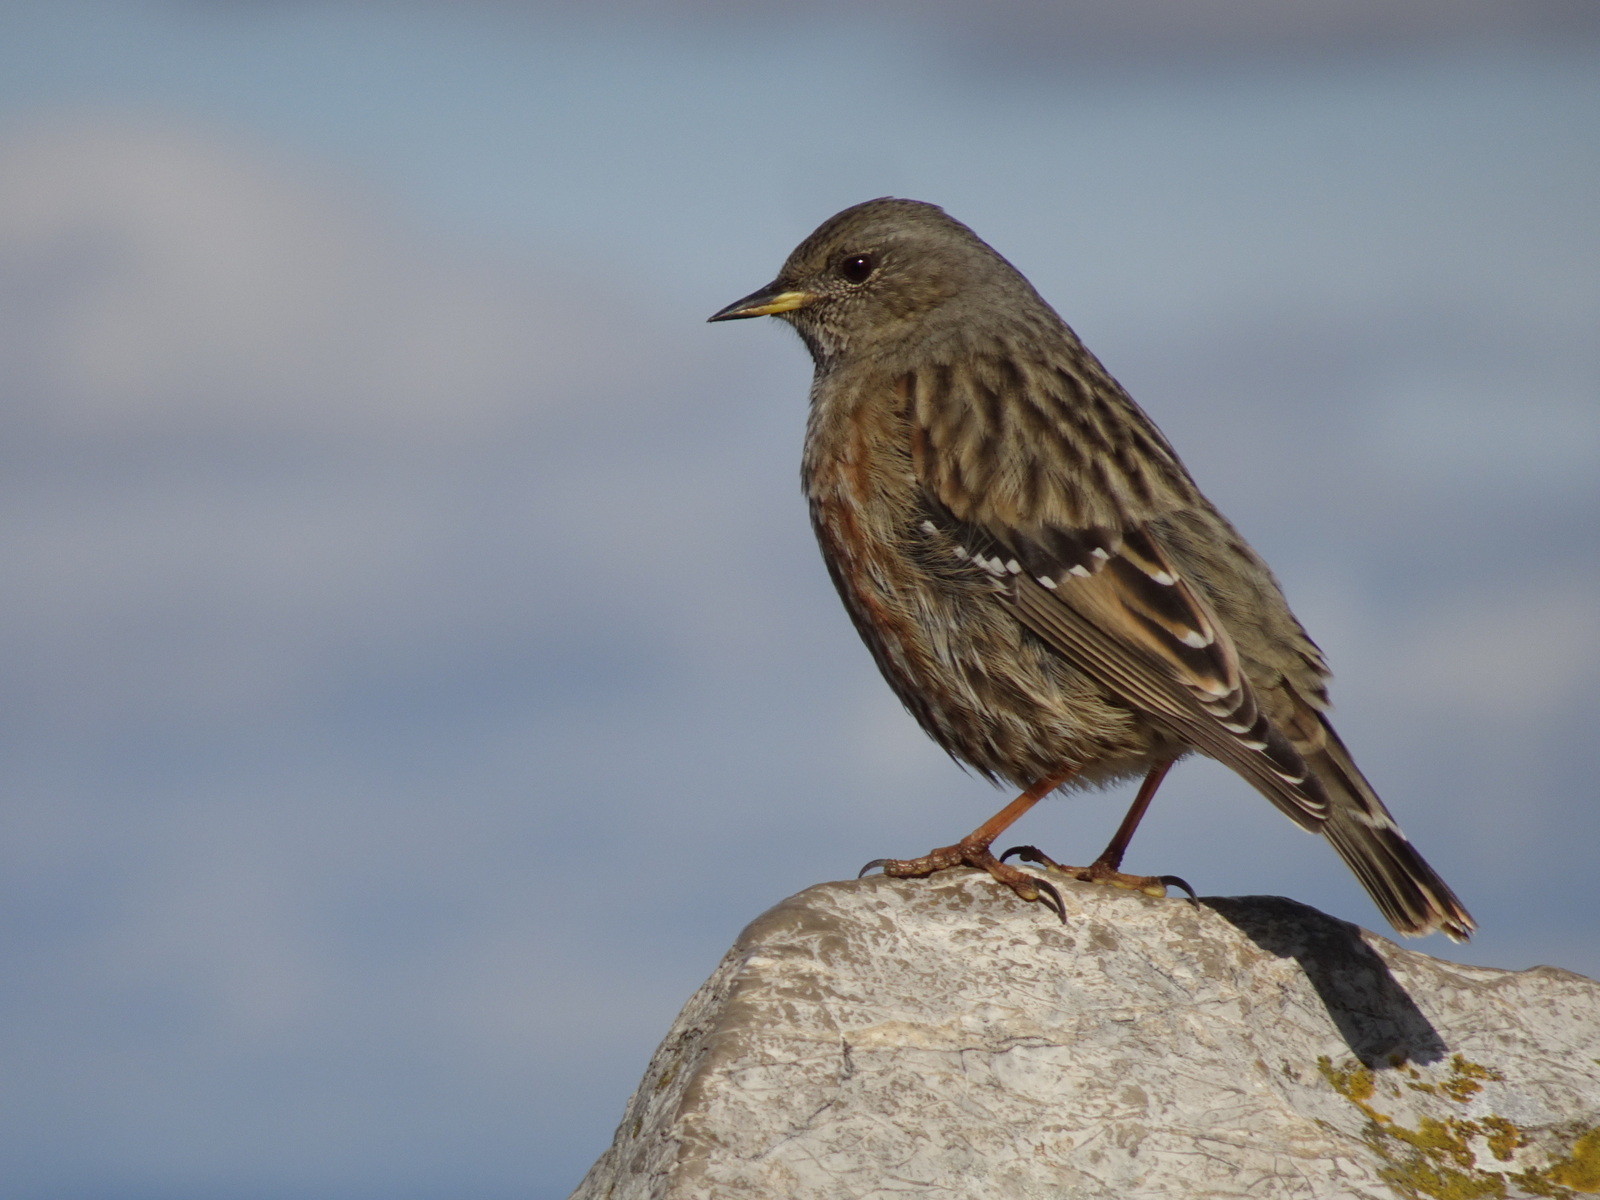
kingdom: Animalia
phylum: Chordata
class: Aves
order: Passeriformes
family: Prunellidae
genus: Prunella
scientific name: Prunella collaris
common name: Alpine accentor
